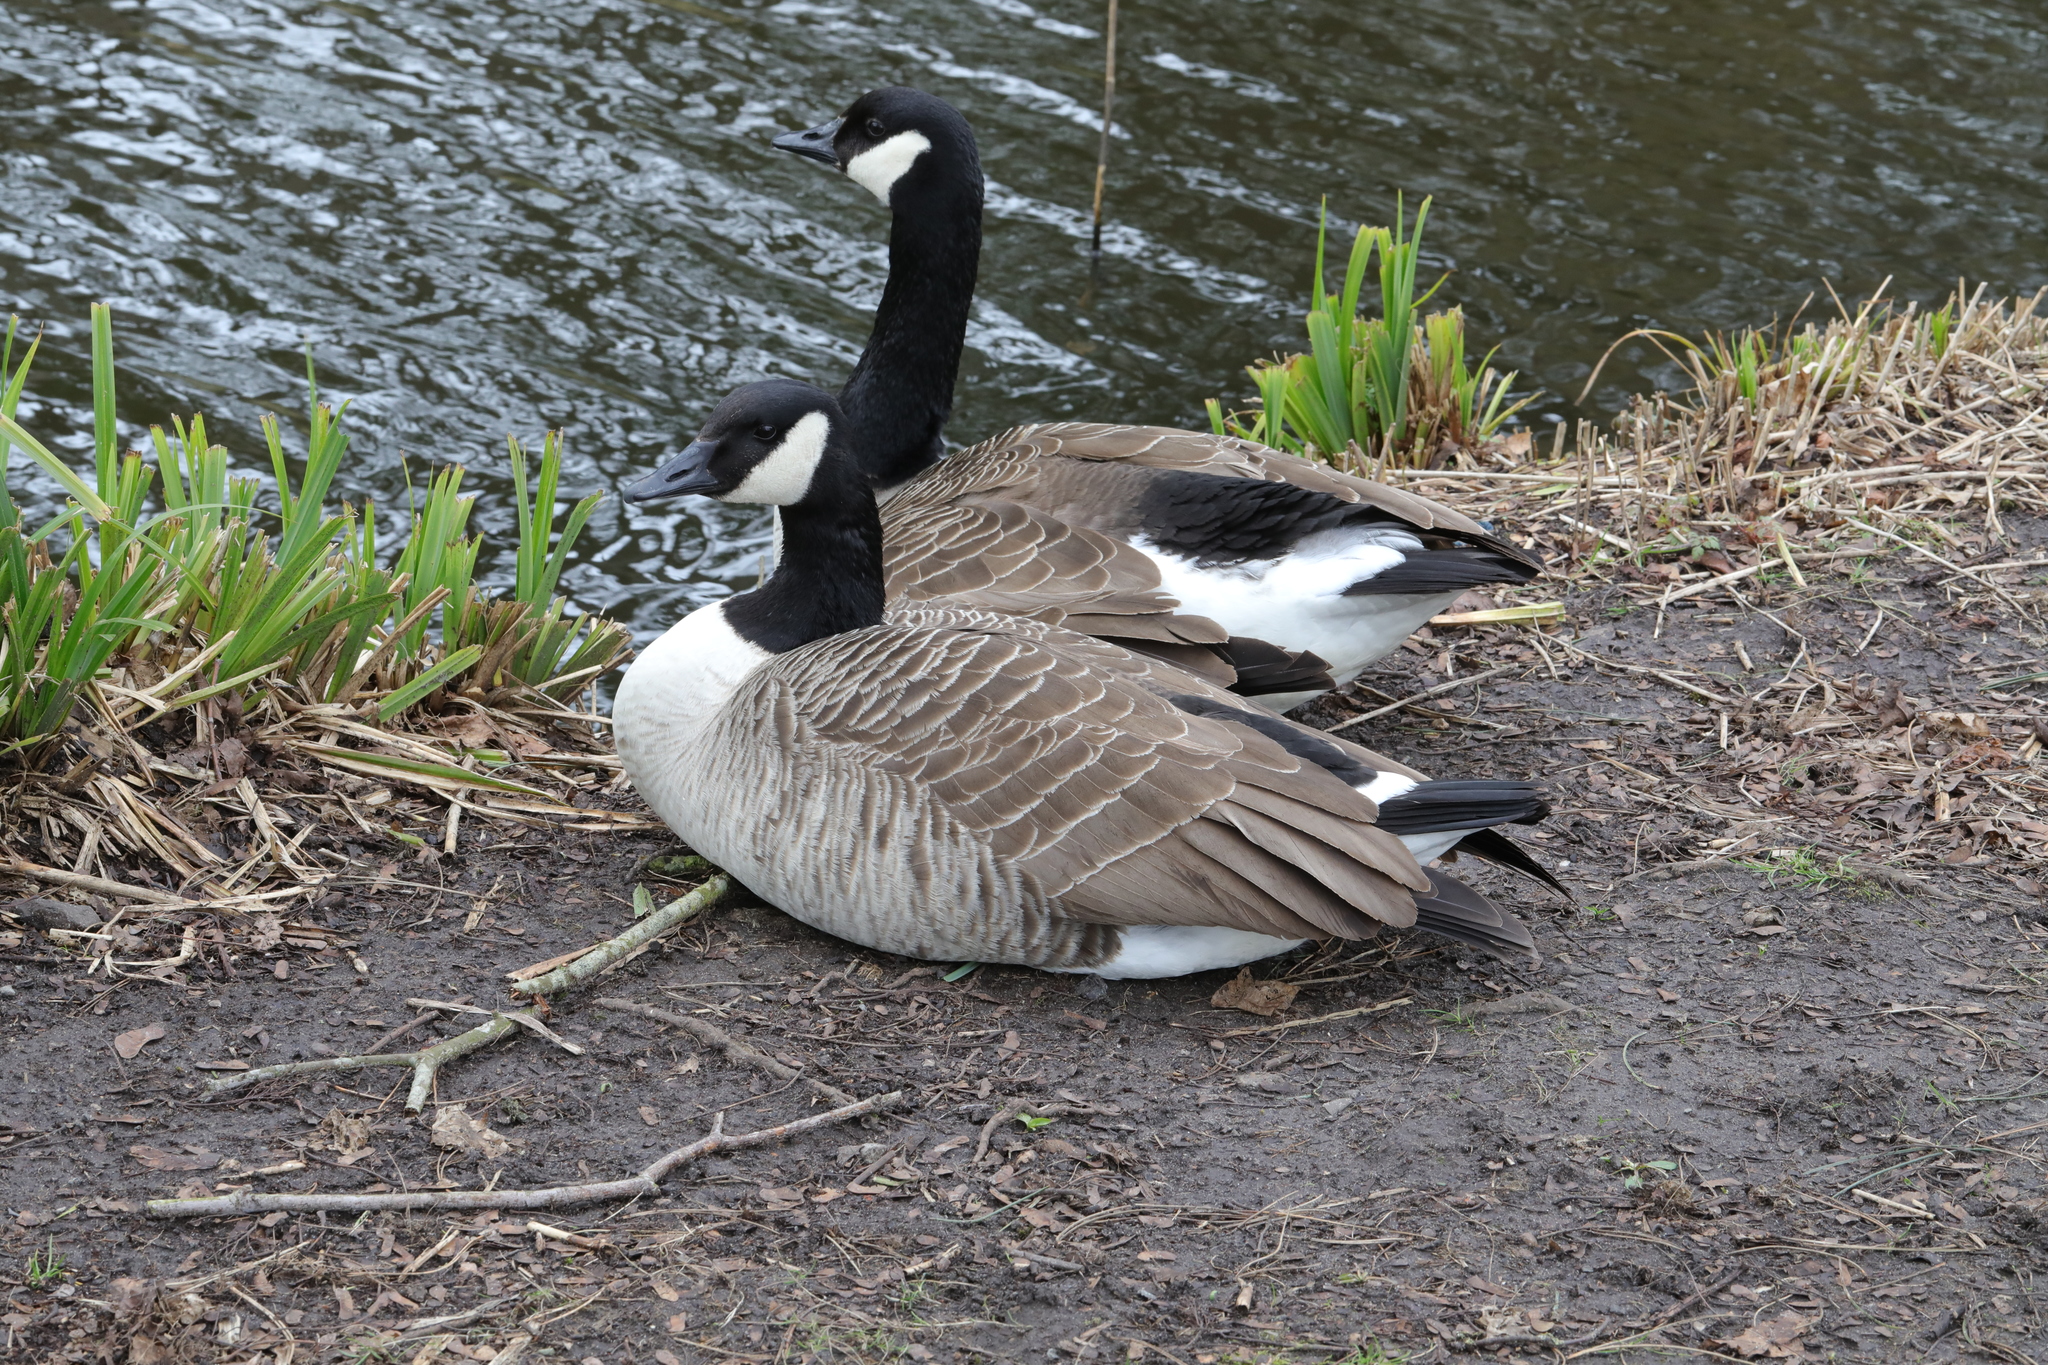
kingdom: Animalia
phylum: Chordata
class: Aves
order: Anseriformes
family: Anatidae
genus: Branta
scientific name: Branta canadensis
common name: Canada goose
